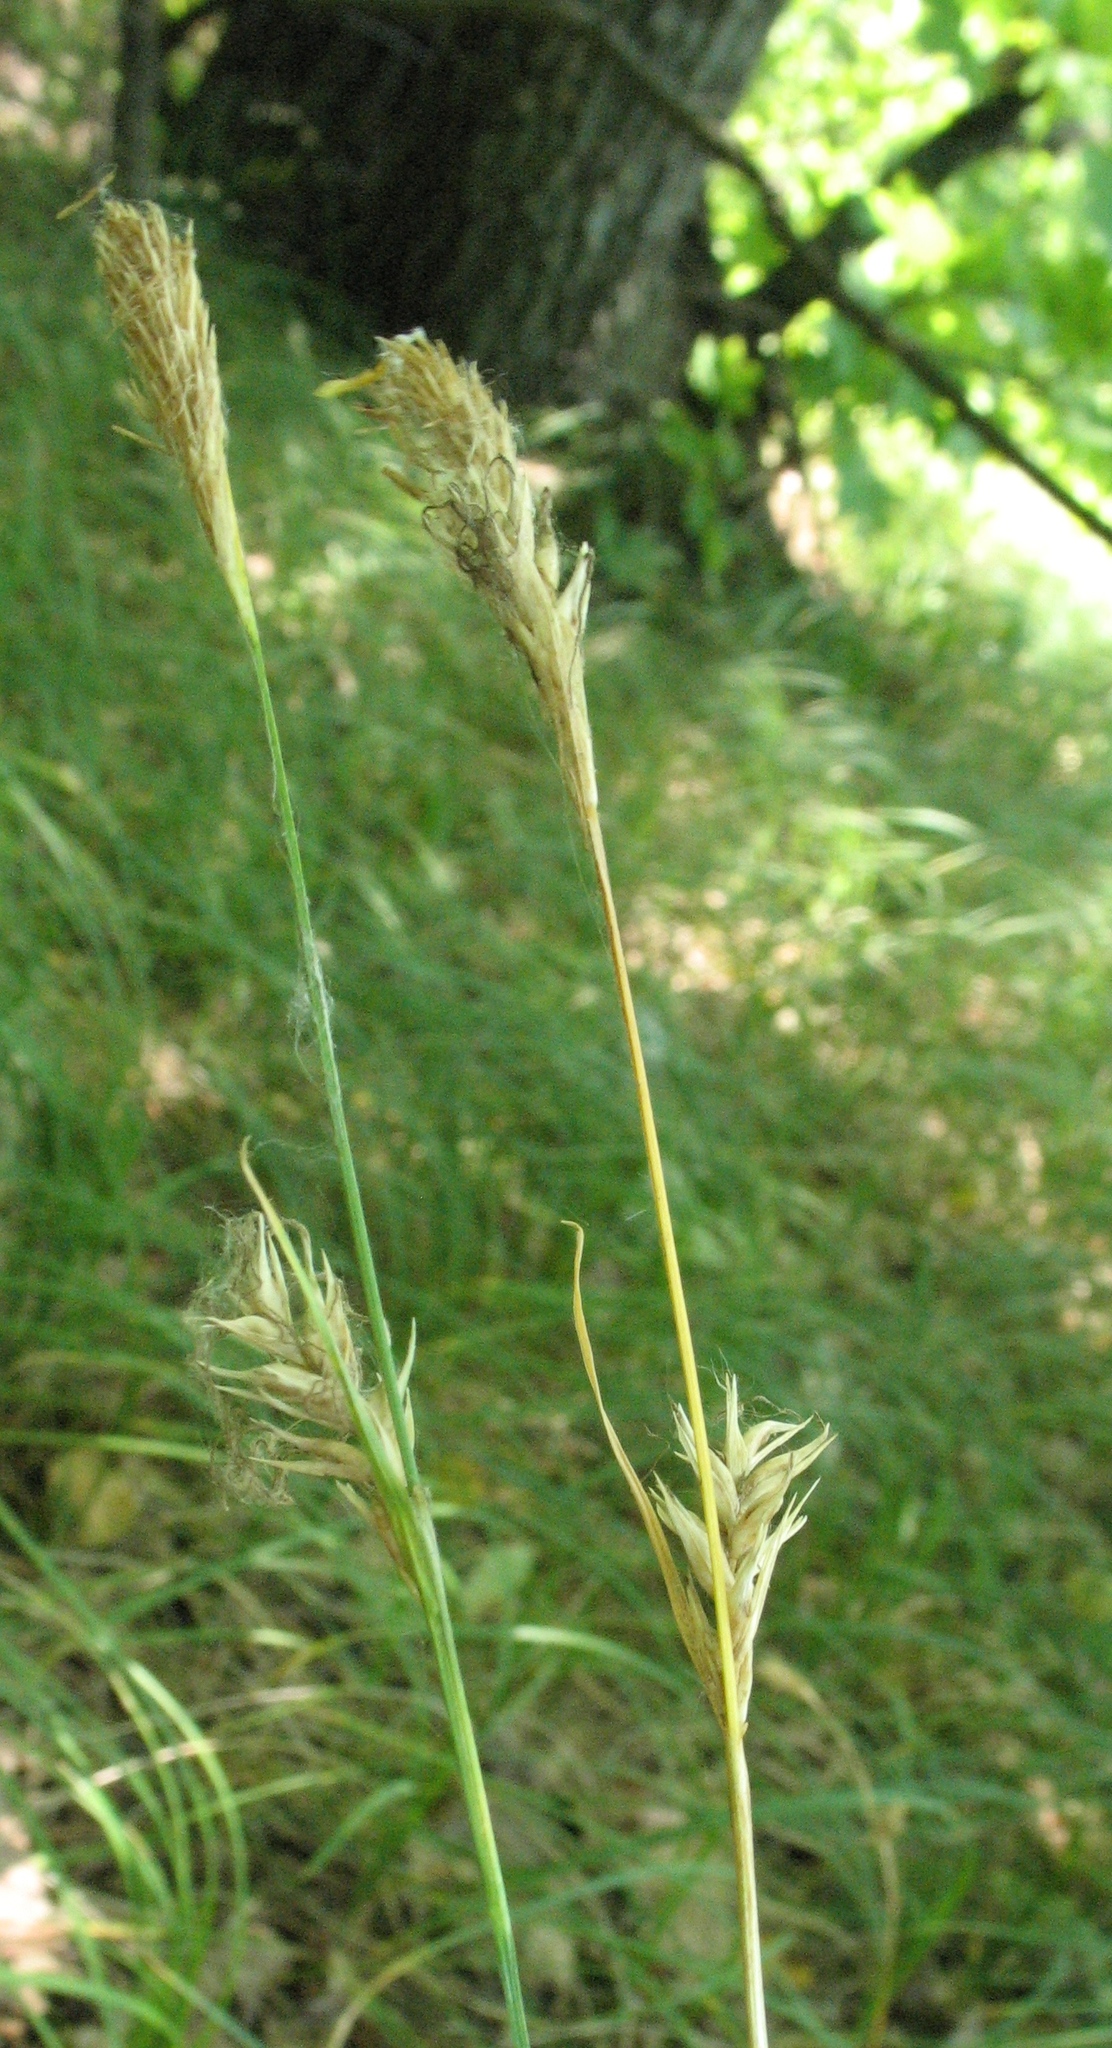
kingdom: Plantae
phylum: Tracheophyta
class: Liliopsida
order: Poales
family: Cyperaceae
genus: Carex
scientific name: Carex michelii
